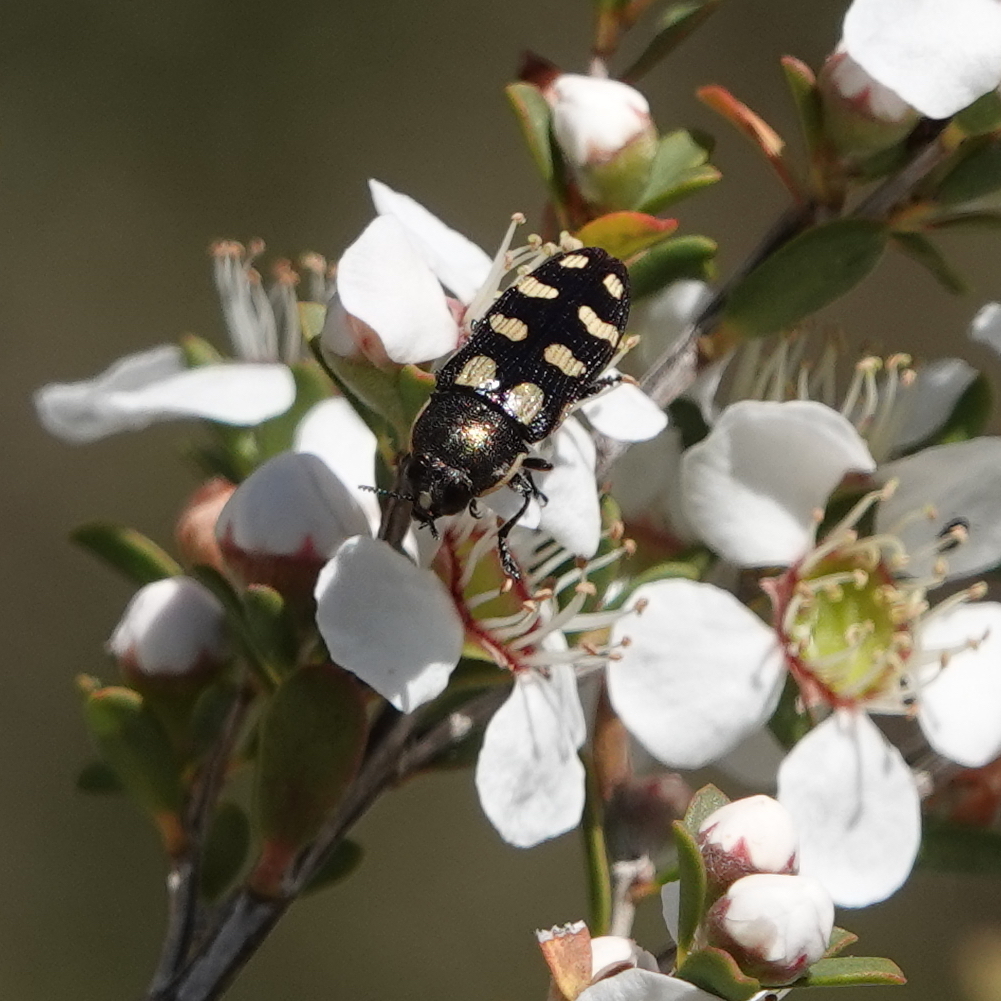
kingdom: Animalia
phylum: Arthropoda
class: Insecta
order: Coleoptera
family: Buprestidae
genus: Castiarina
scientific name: Castiarina decemmaculata
